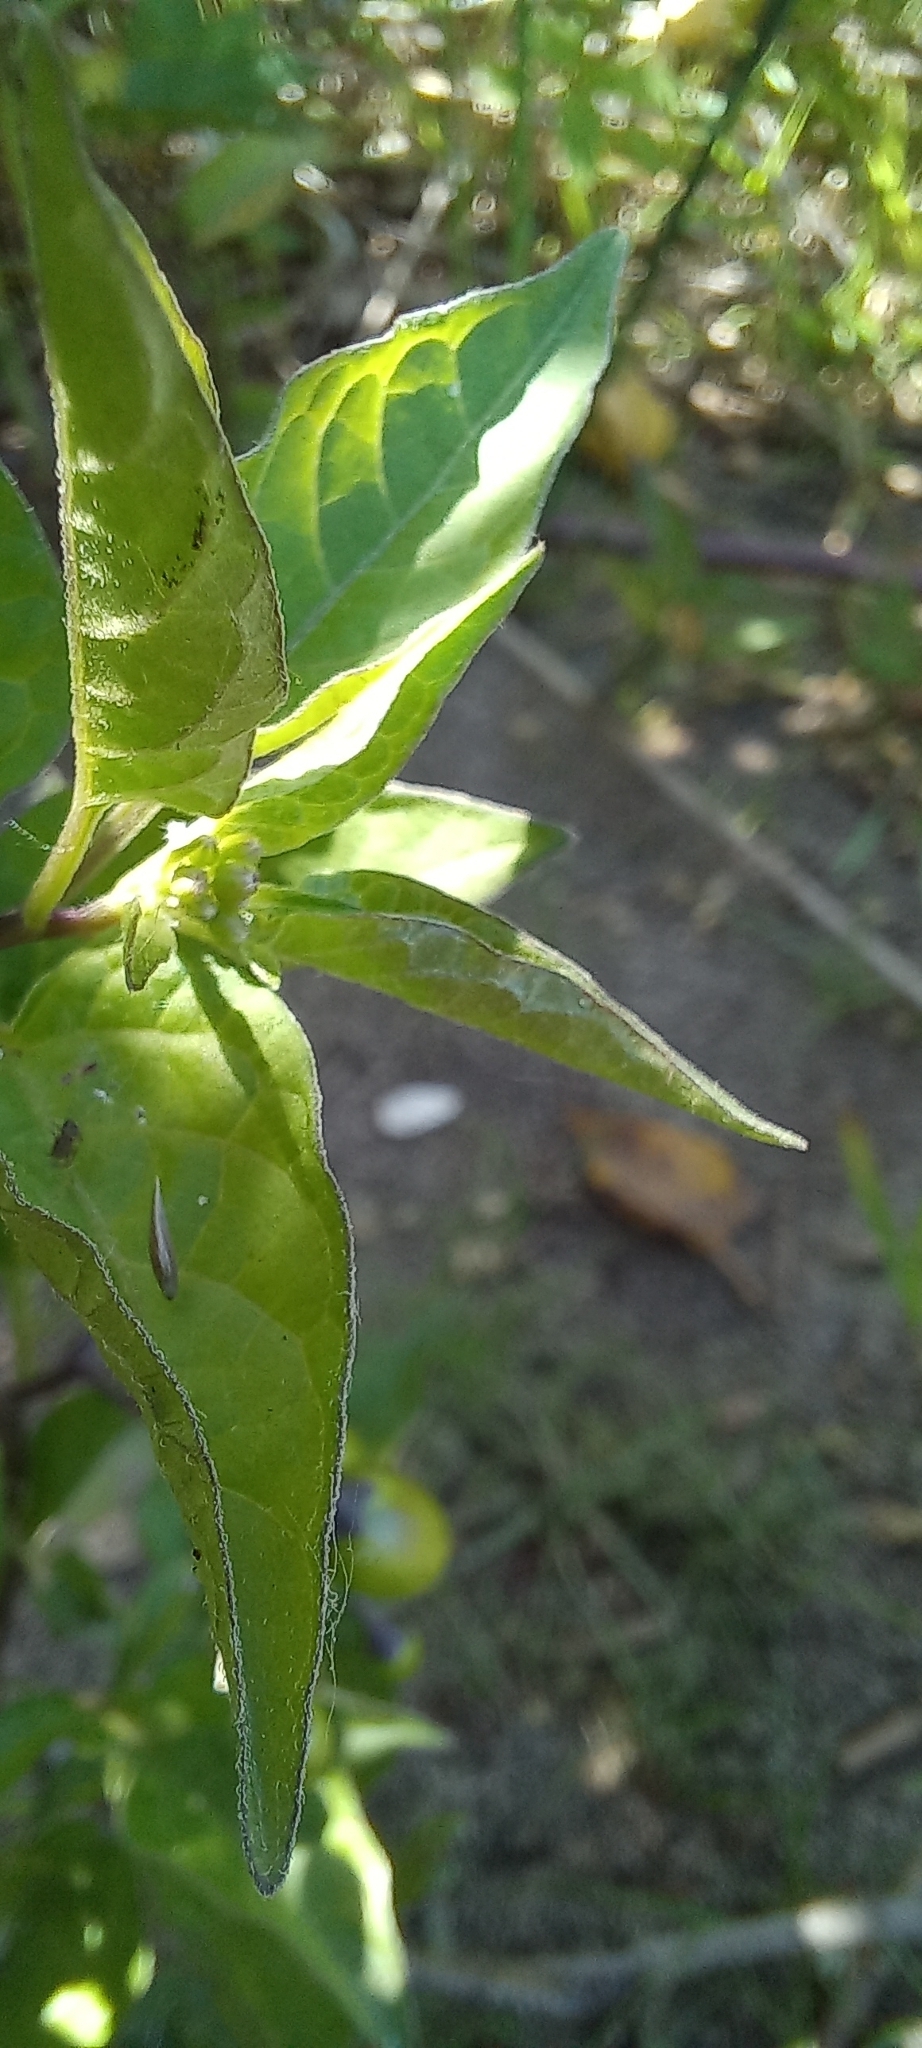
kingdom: Plantae
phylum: Tracheophyta
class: Magnoliopsida
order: Solanales
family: Solanaceae
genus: Solanum
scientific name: Solanum dulcamara
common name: Climbing nightshade
